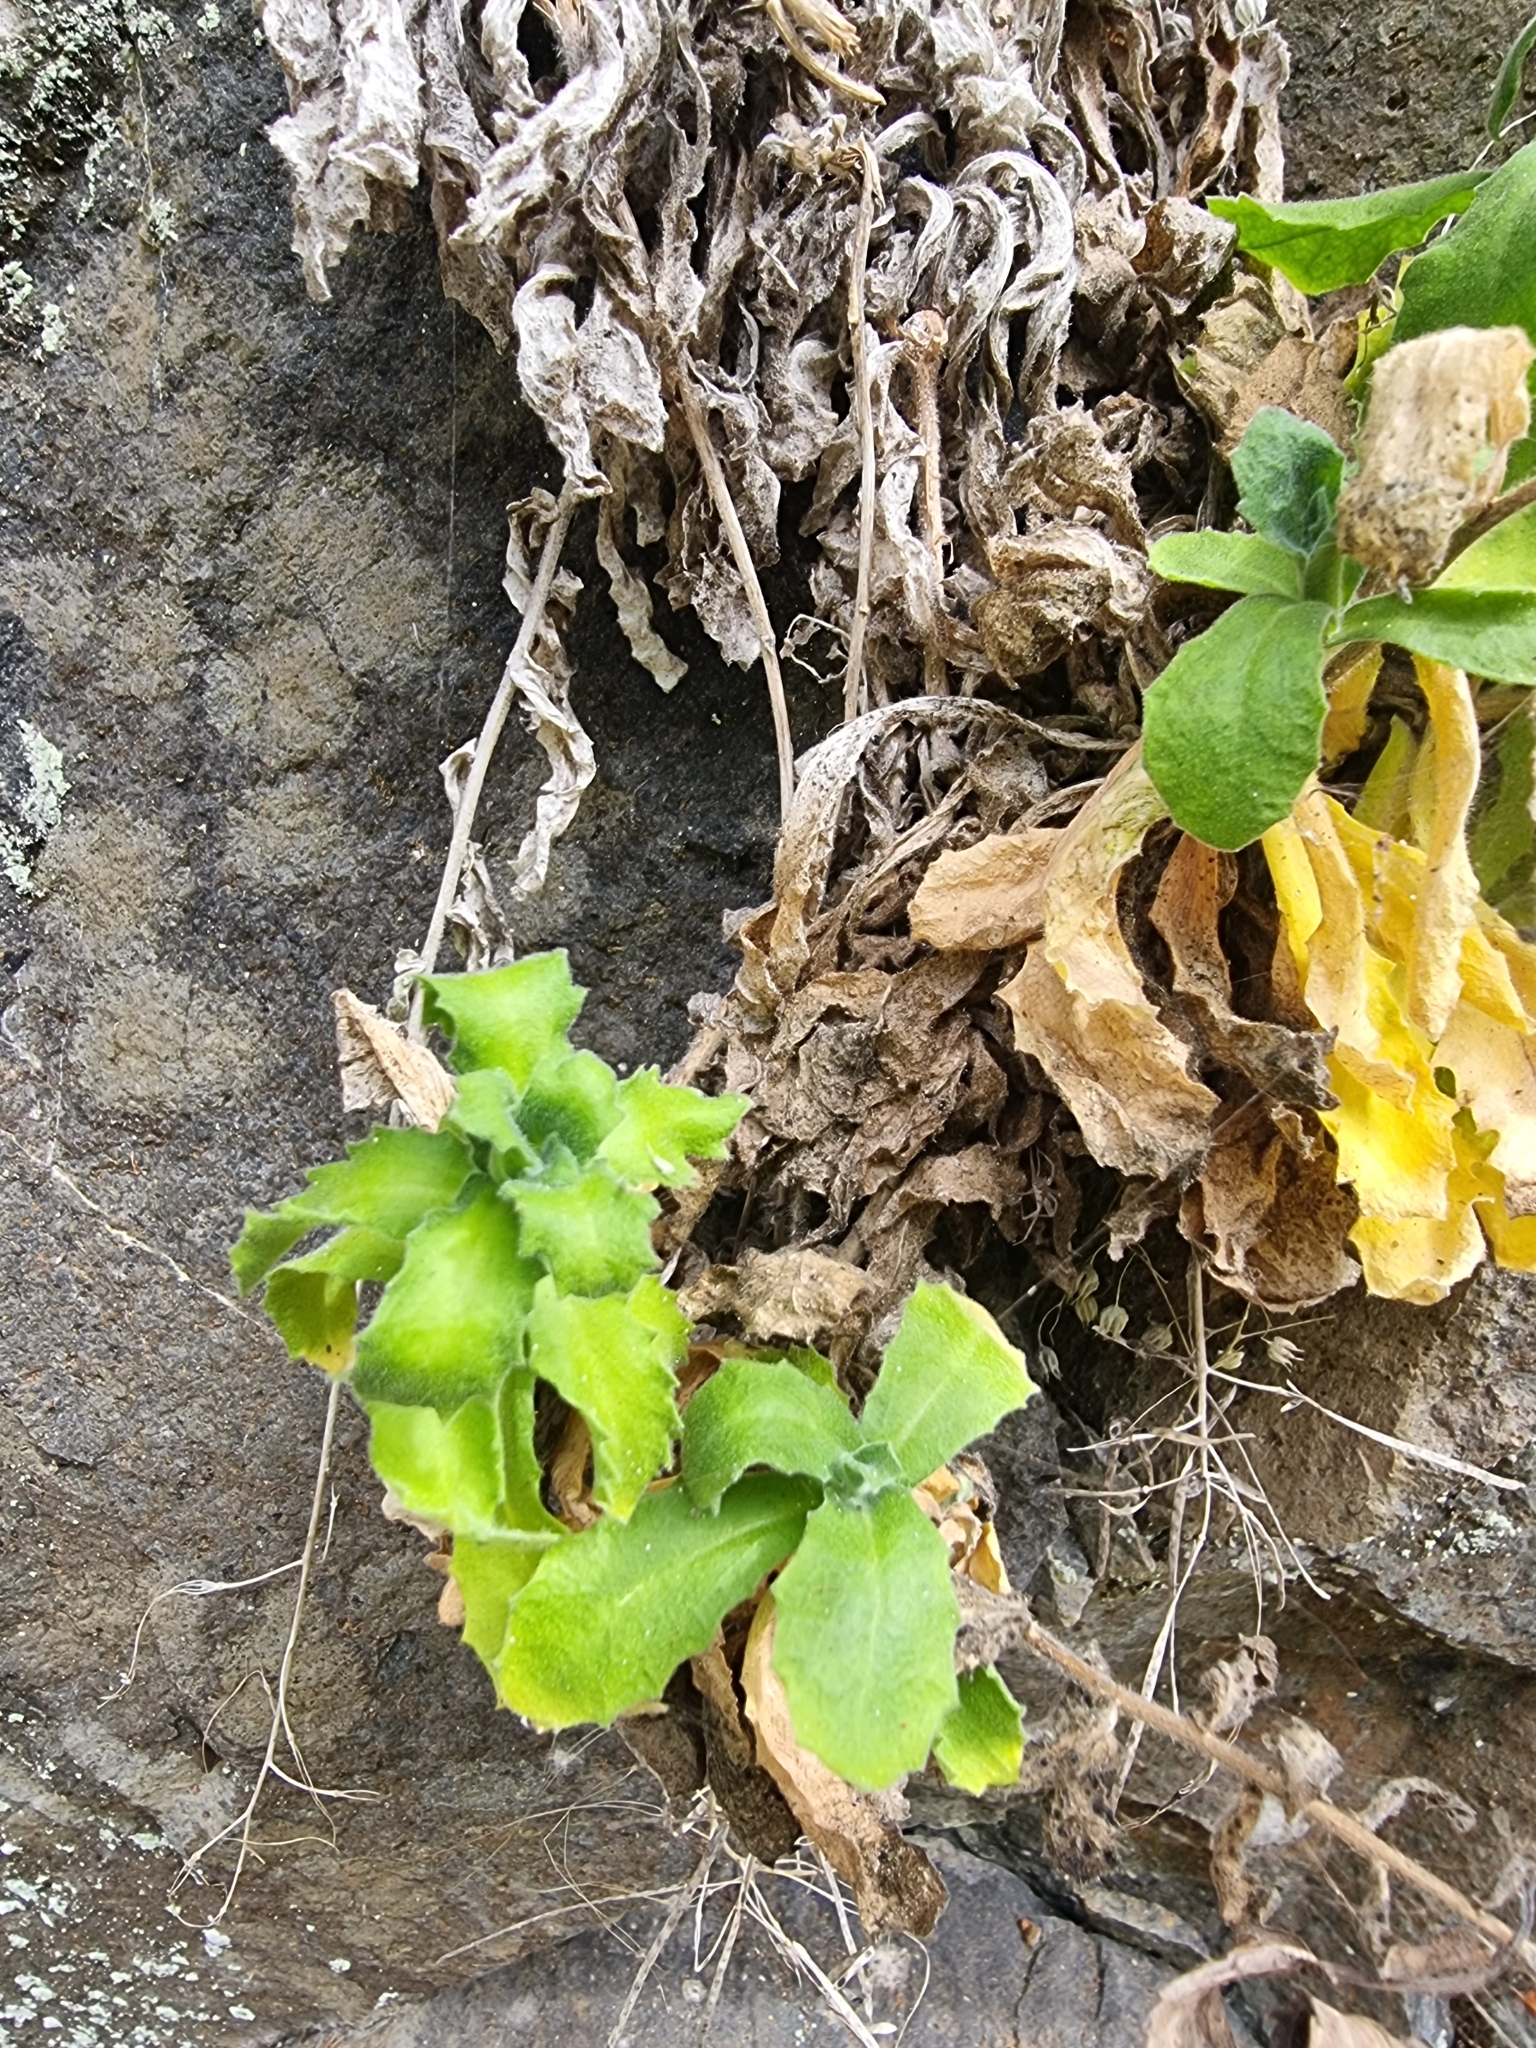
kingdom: Plantae
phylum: Tracheophyta
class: Magnoliopsida
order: Brassicales
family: Brassicaceae
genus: Arabis
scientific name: Arabis caucasica
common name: Gray rockcress
